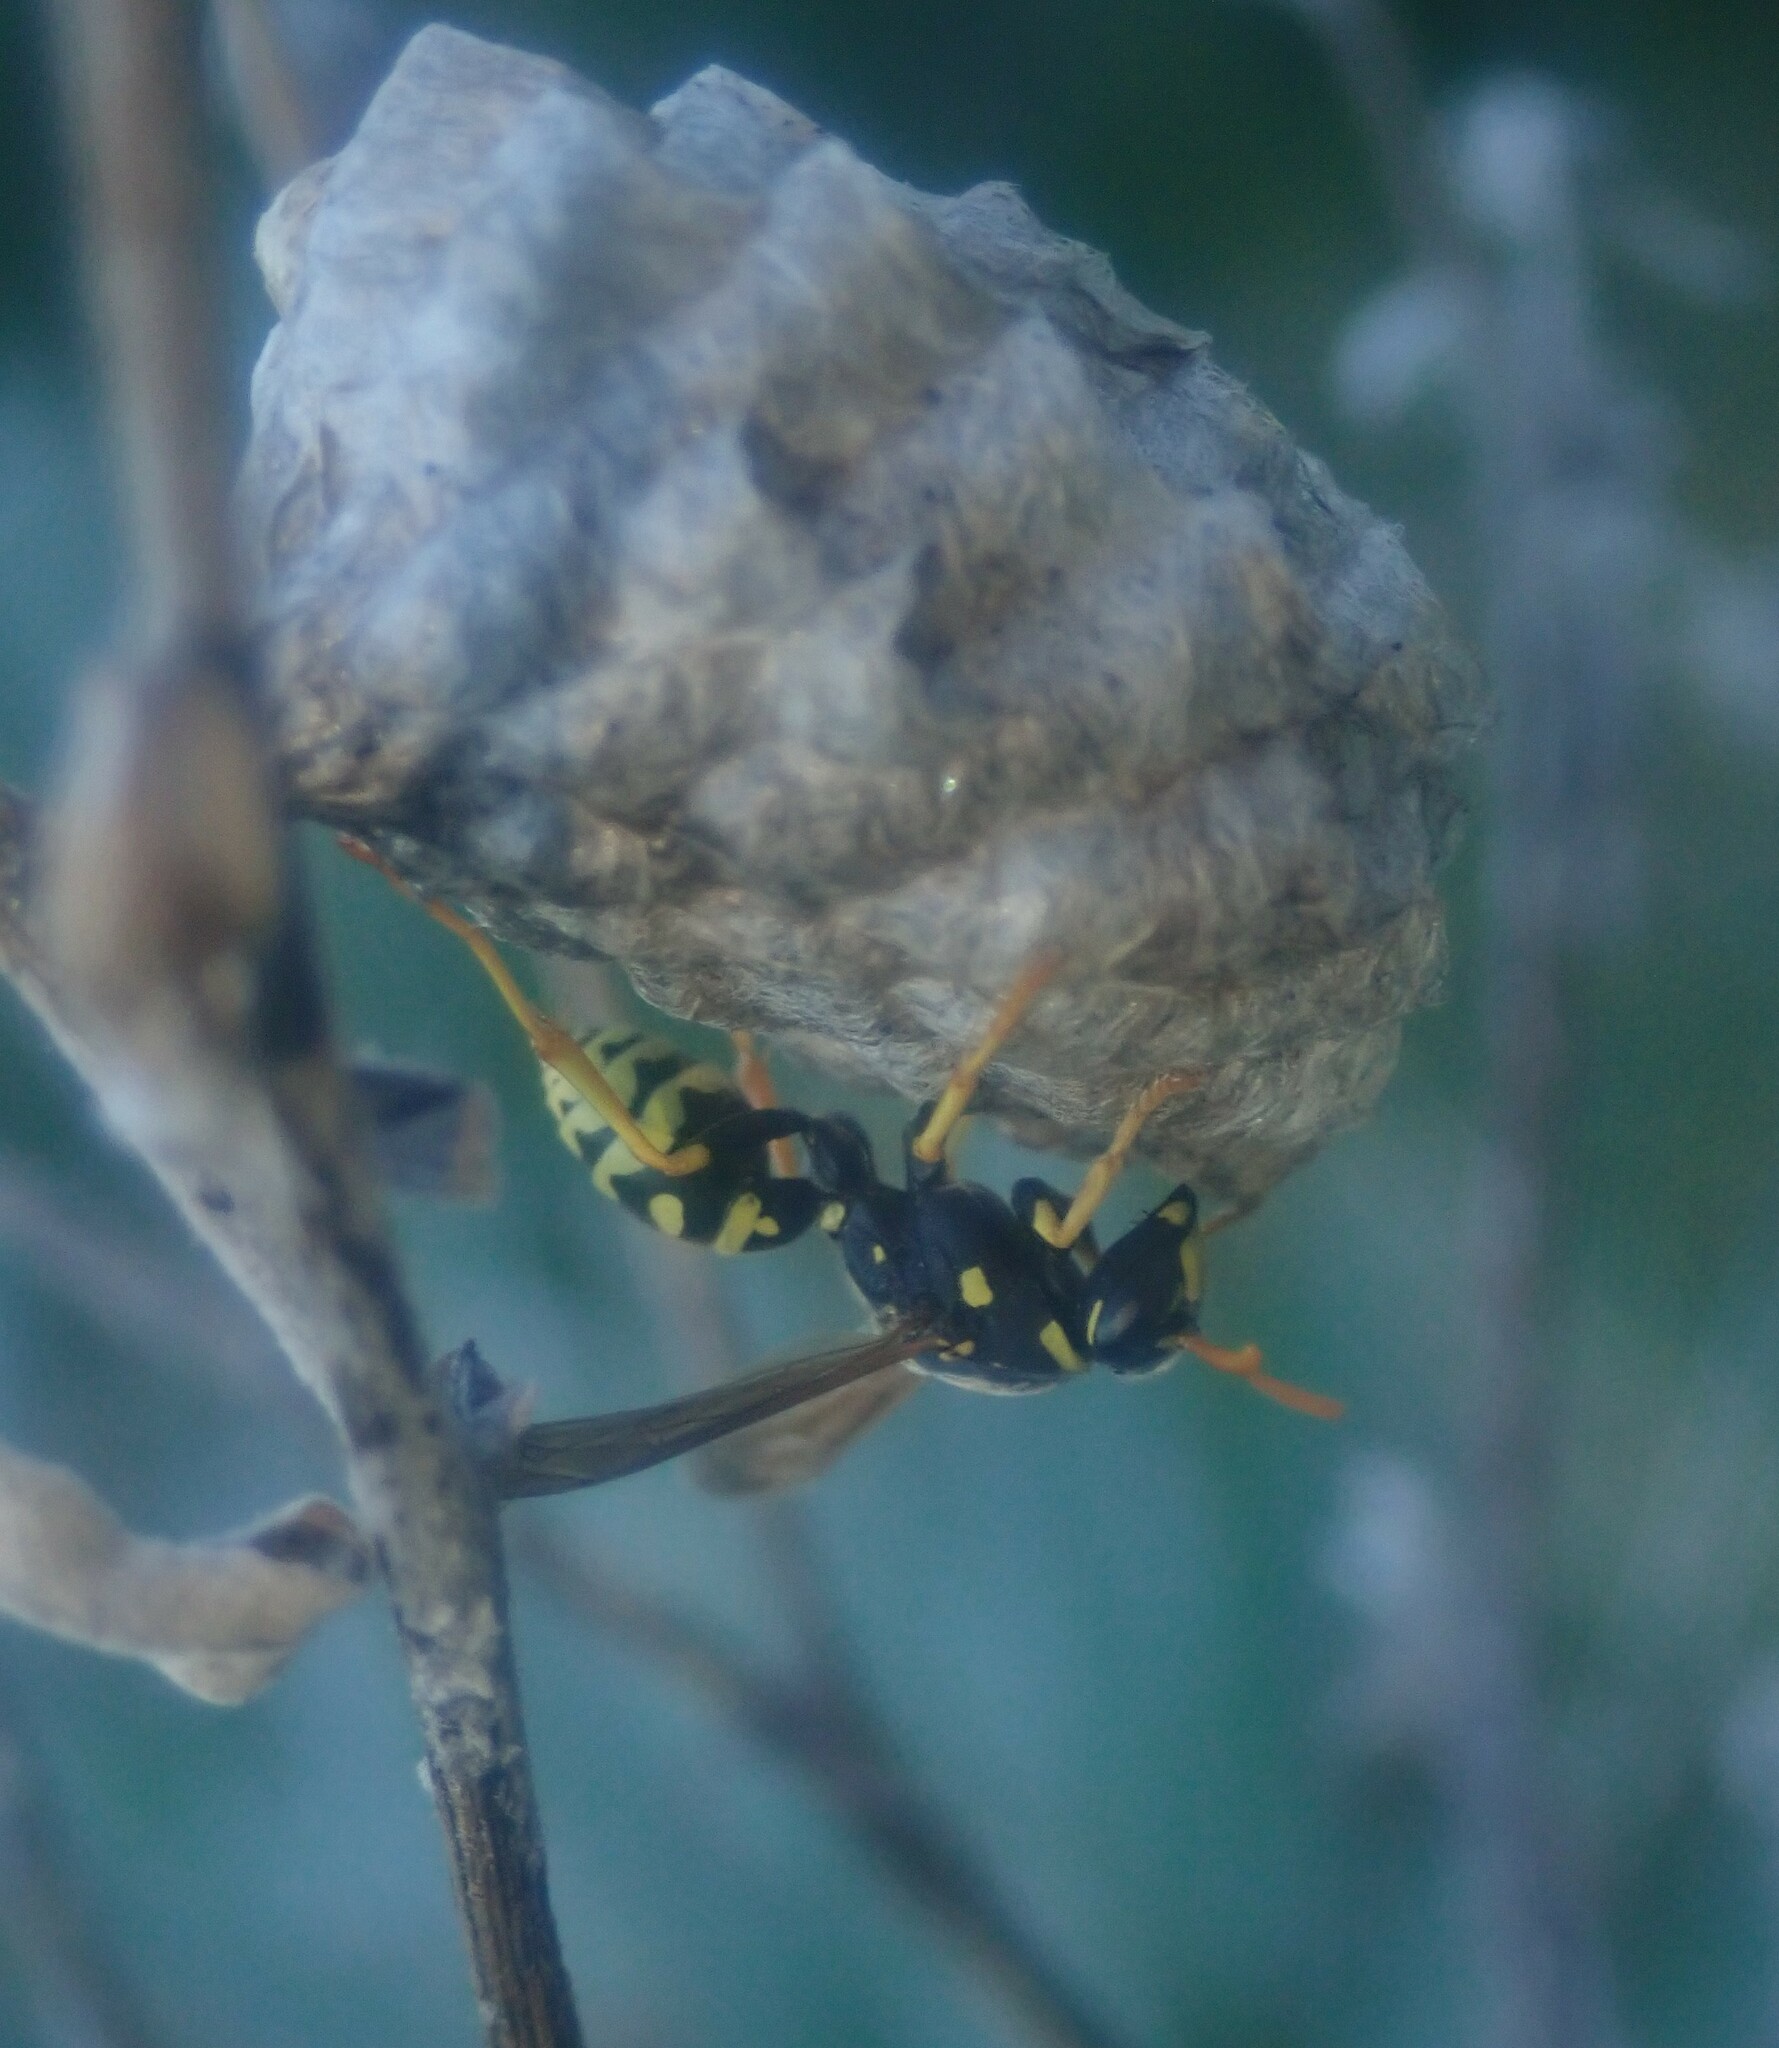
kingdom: Animalia
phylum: Arthropoda
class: Insecta
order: Hymenoptera
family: Eumenidae
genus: Polistes
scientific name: Polistes gallicus
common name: Paper wasp
